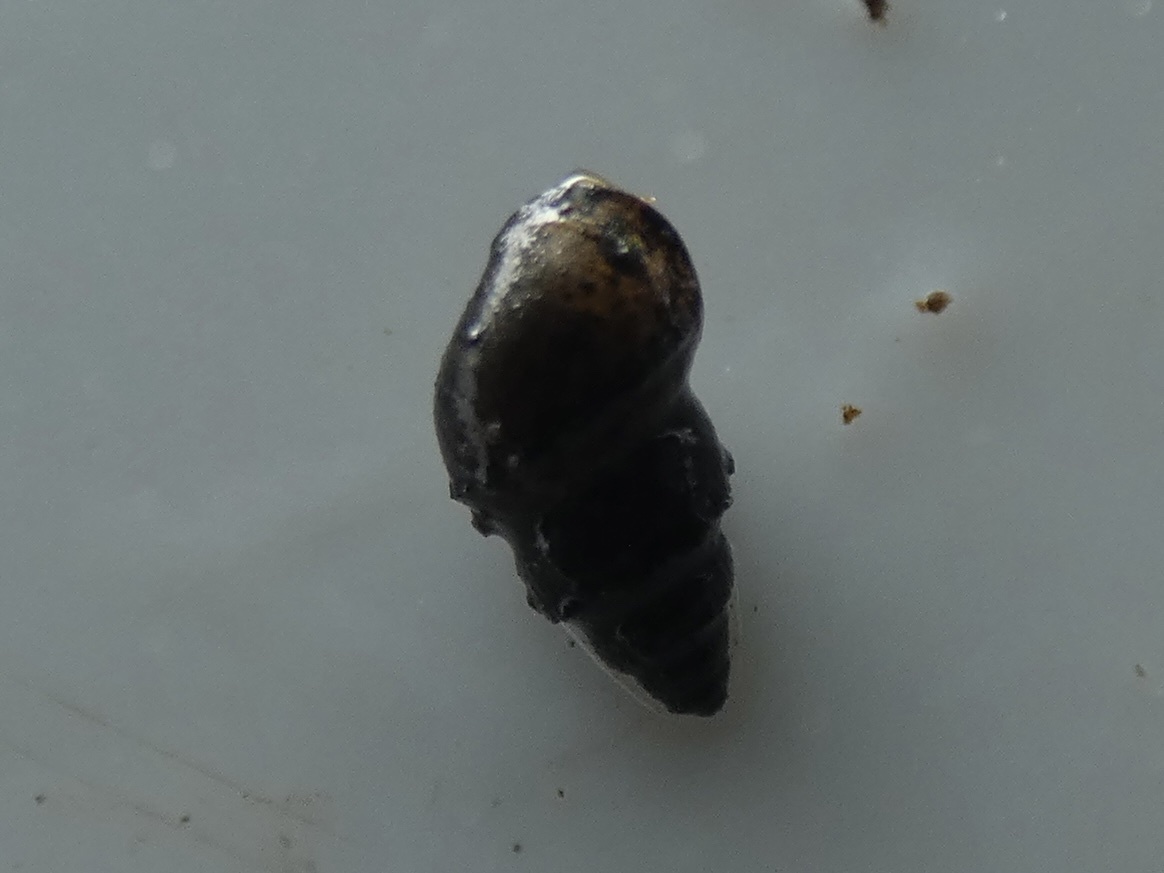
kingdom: Animalia
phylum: Mollusca
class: Gastropoda
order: Littorinimorpha
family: Tateidae
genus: Potamopyrgus
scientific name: Potamopyrgus antipodarum
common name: Jenkins' spire snail
